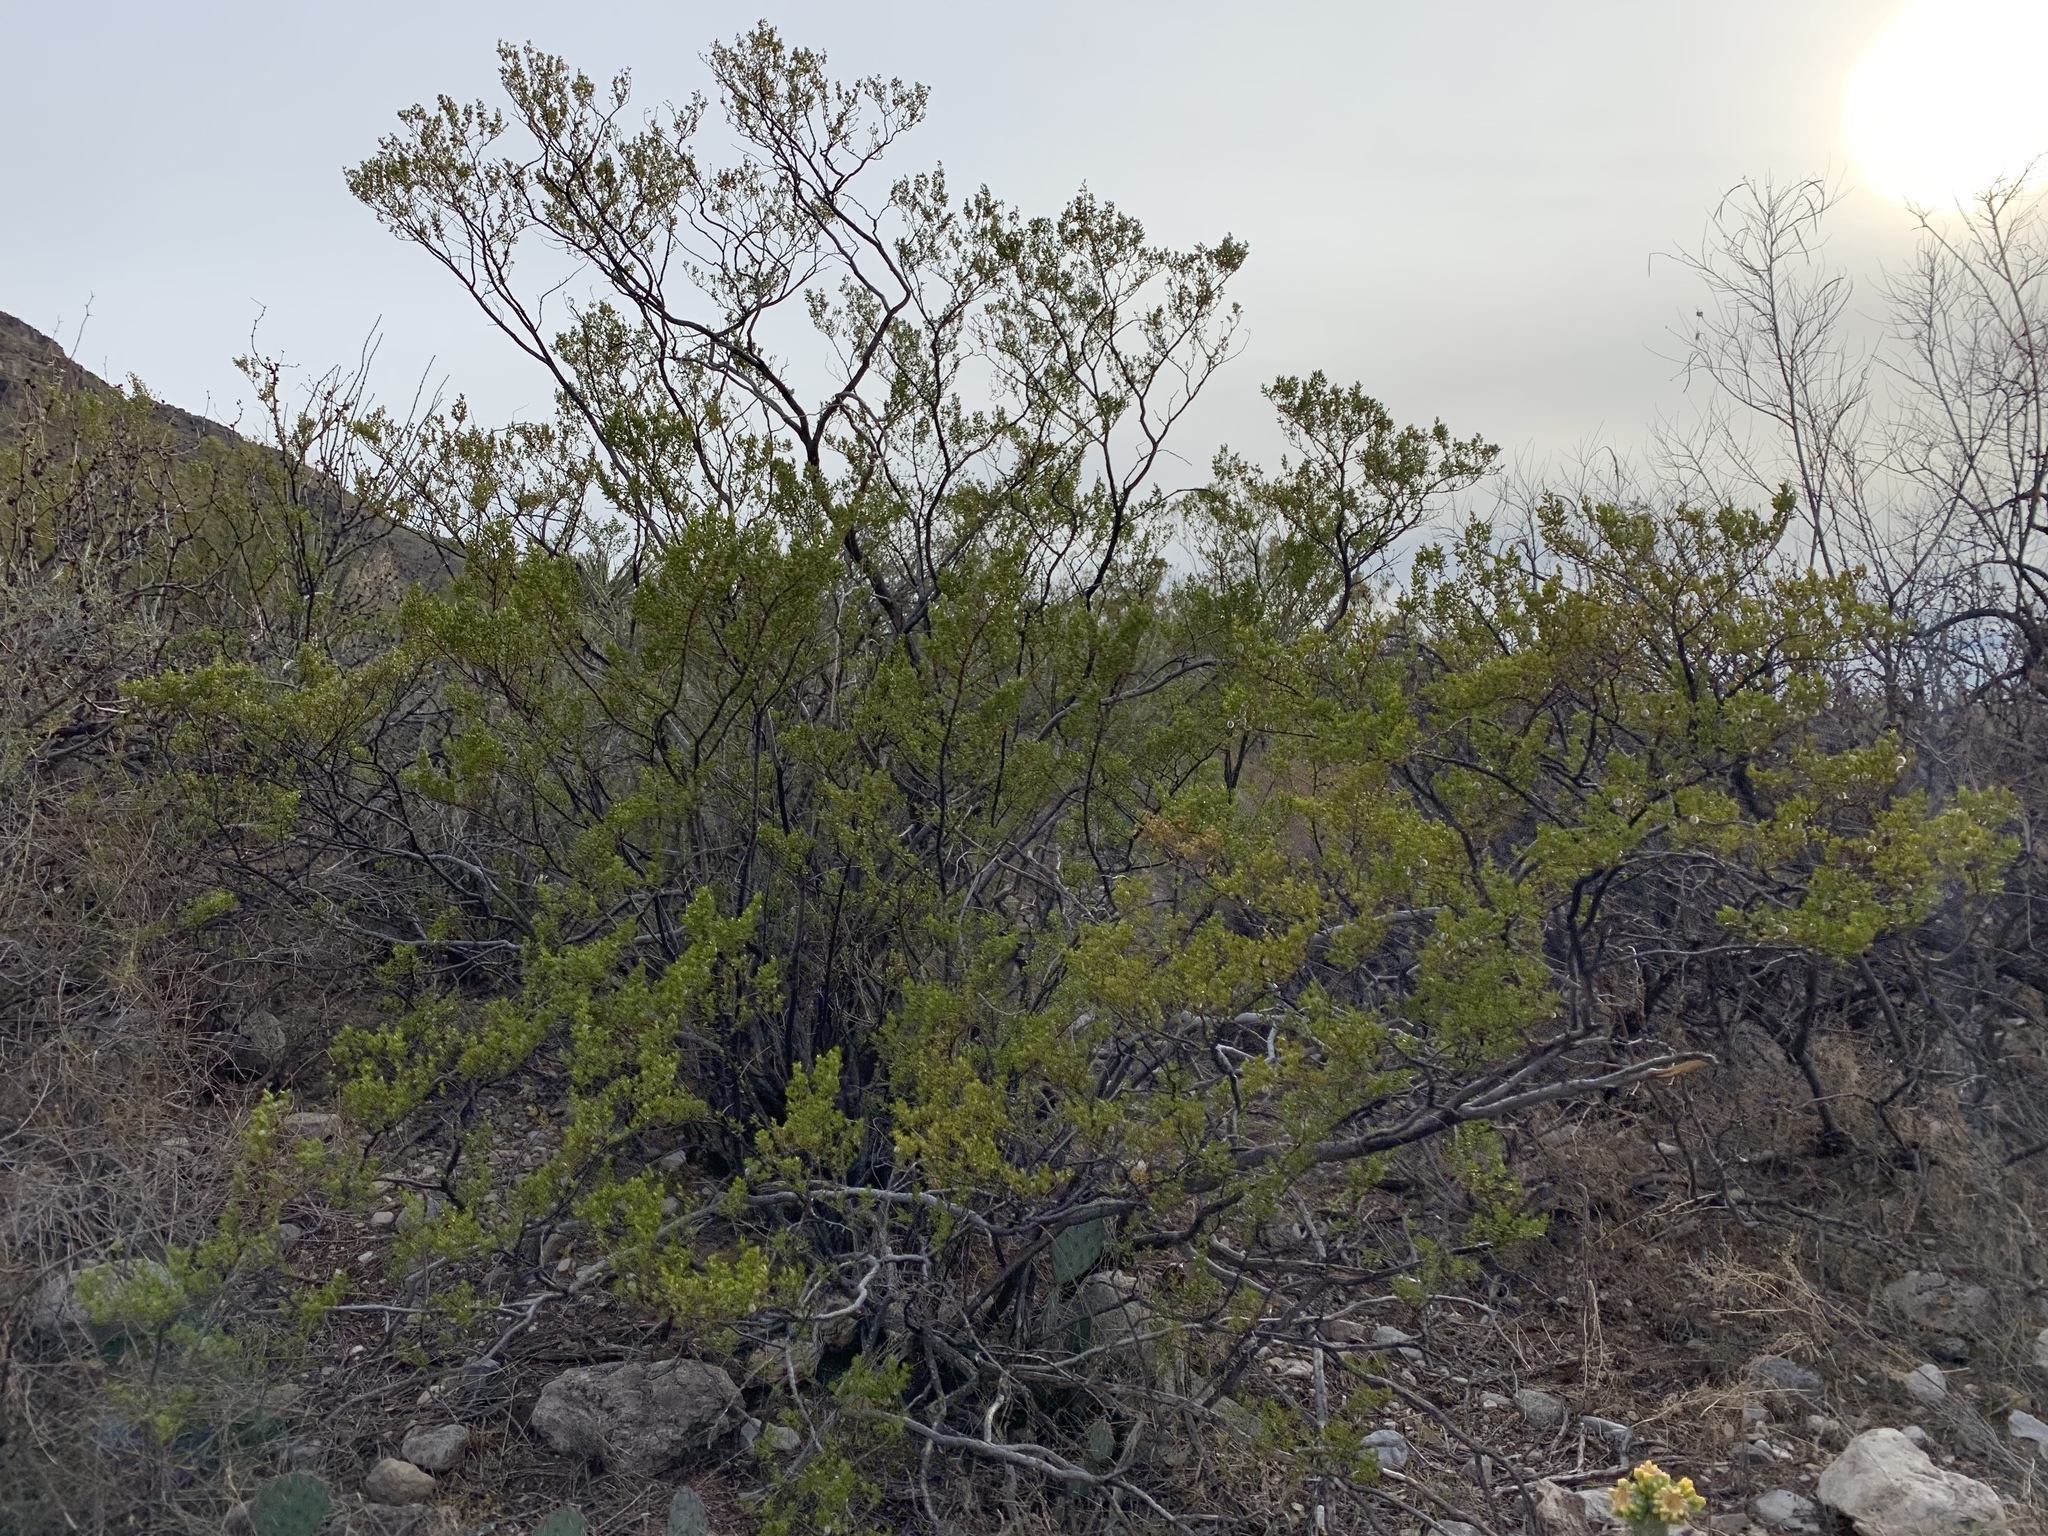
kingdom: Plantae
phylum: Tracheophyta
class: Magnoliopsida
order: Zygophyllales
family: Zygophyllaceae
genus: Larrea
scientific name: Larrea tridentata
